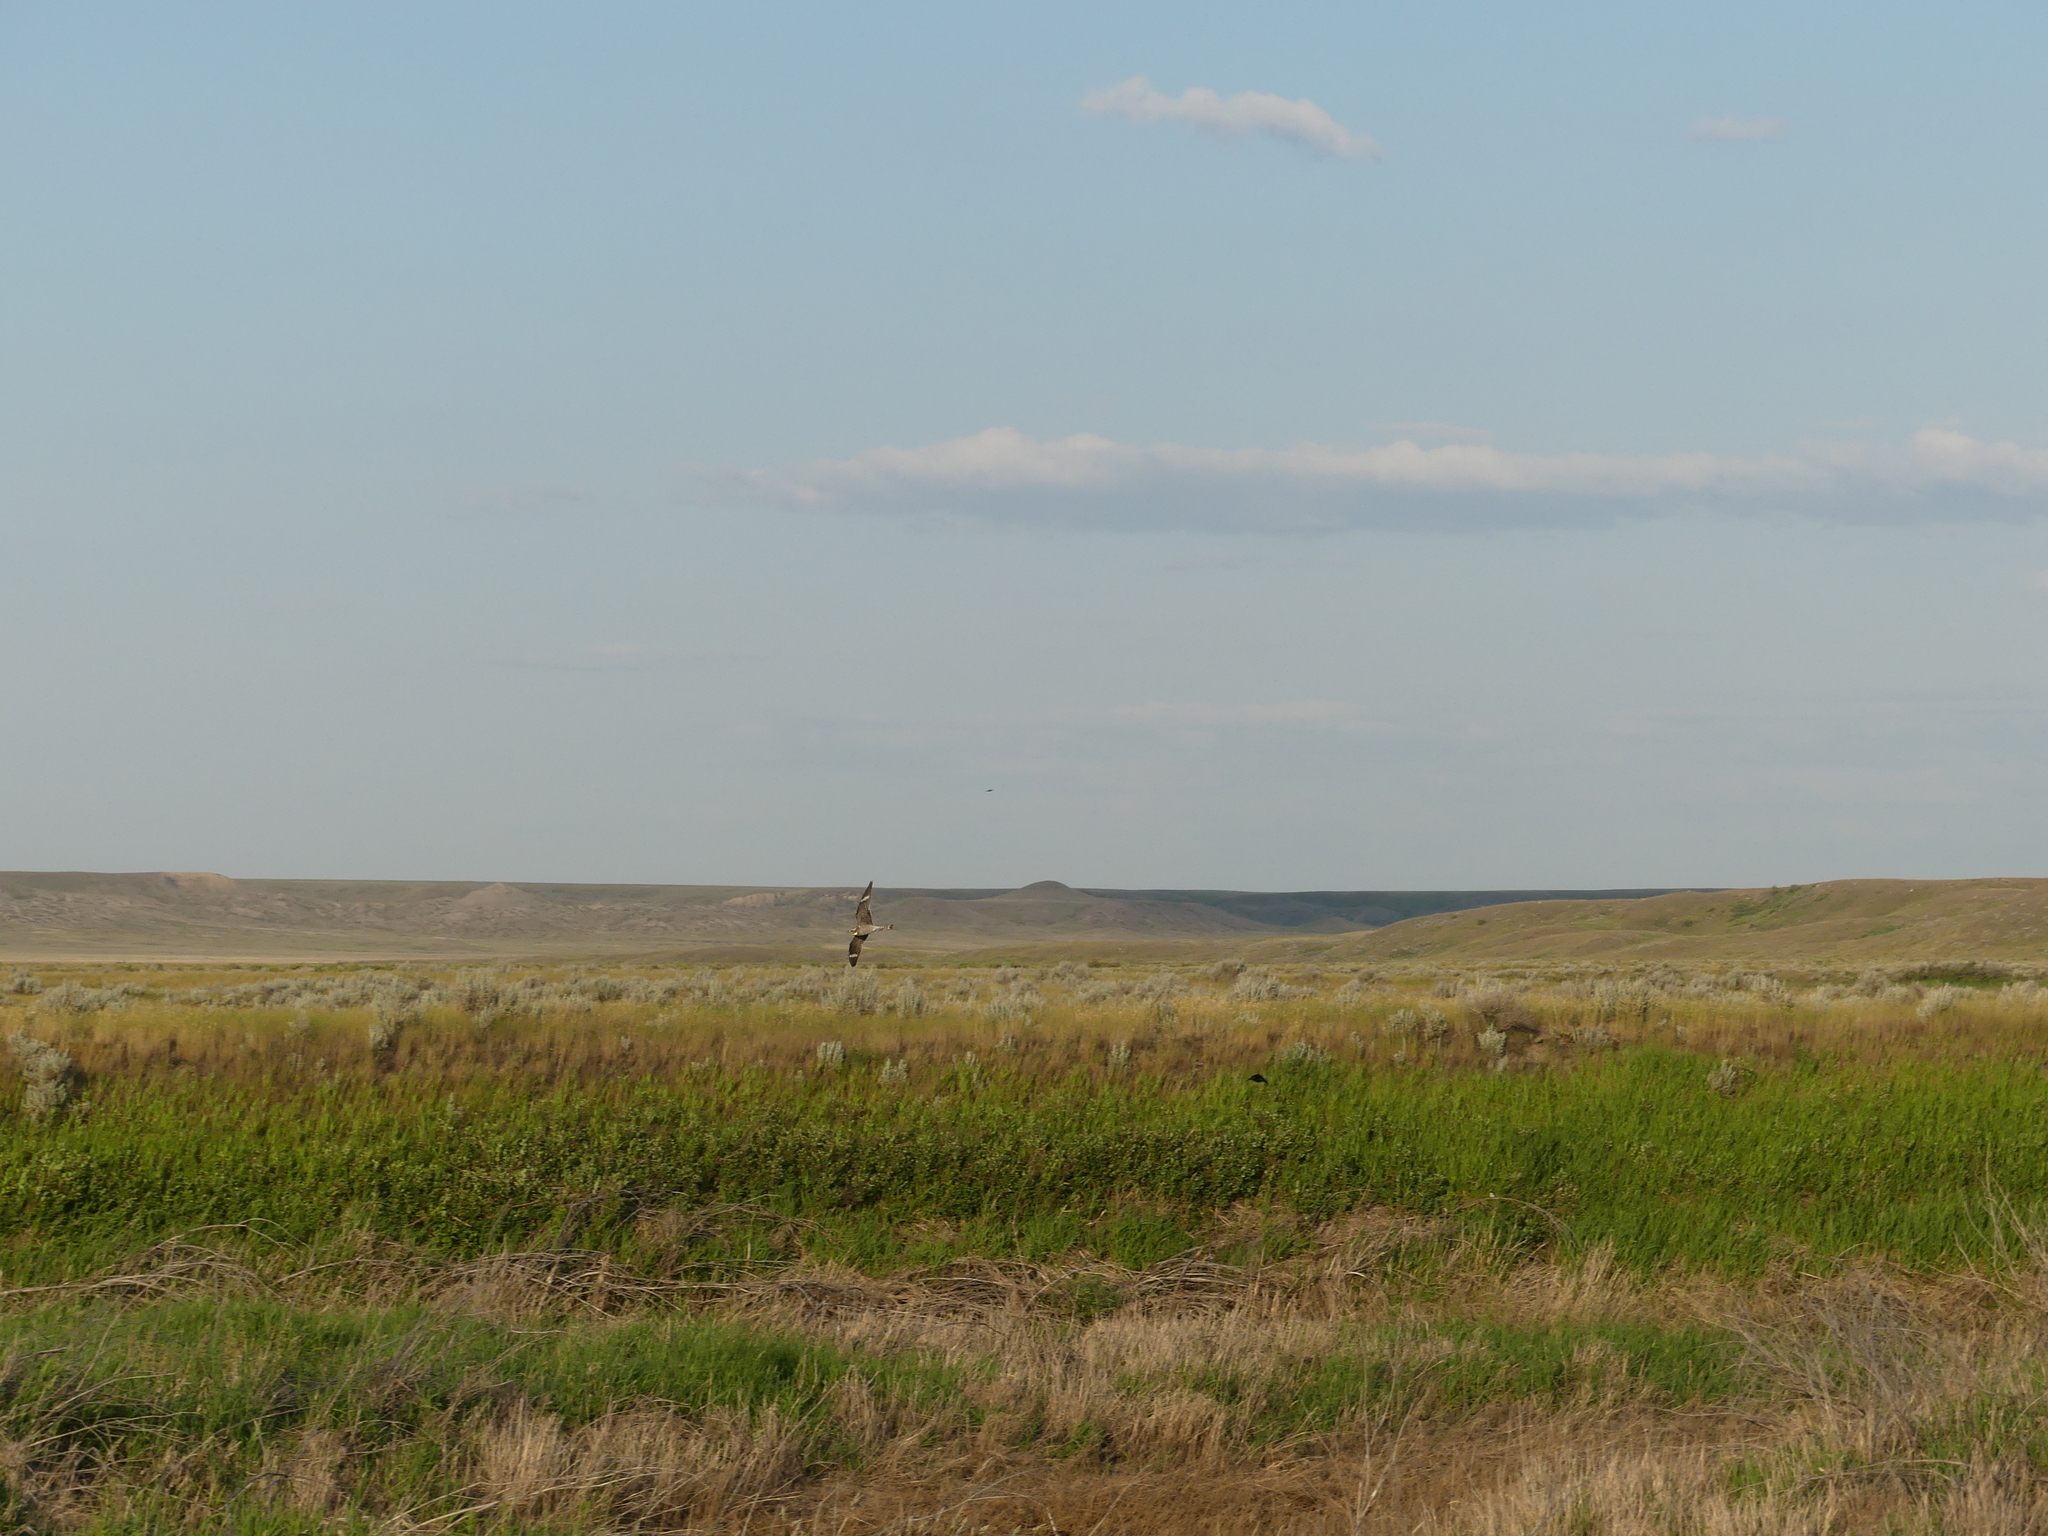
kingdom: Animalia
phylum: Chordata
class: Aves
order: Caprimulgiformes
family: Caprimulgidae
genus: Chordeiles
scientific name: Chordeiles minor
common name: Common nighthawk
